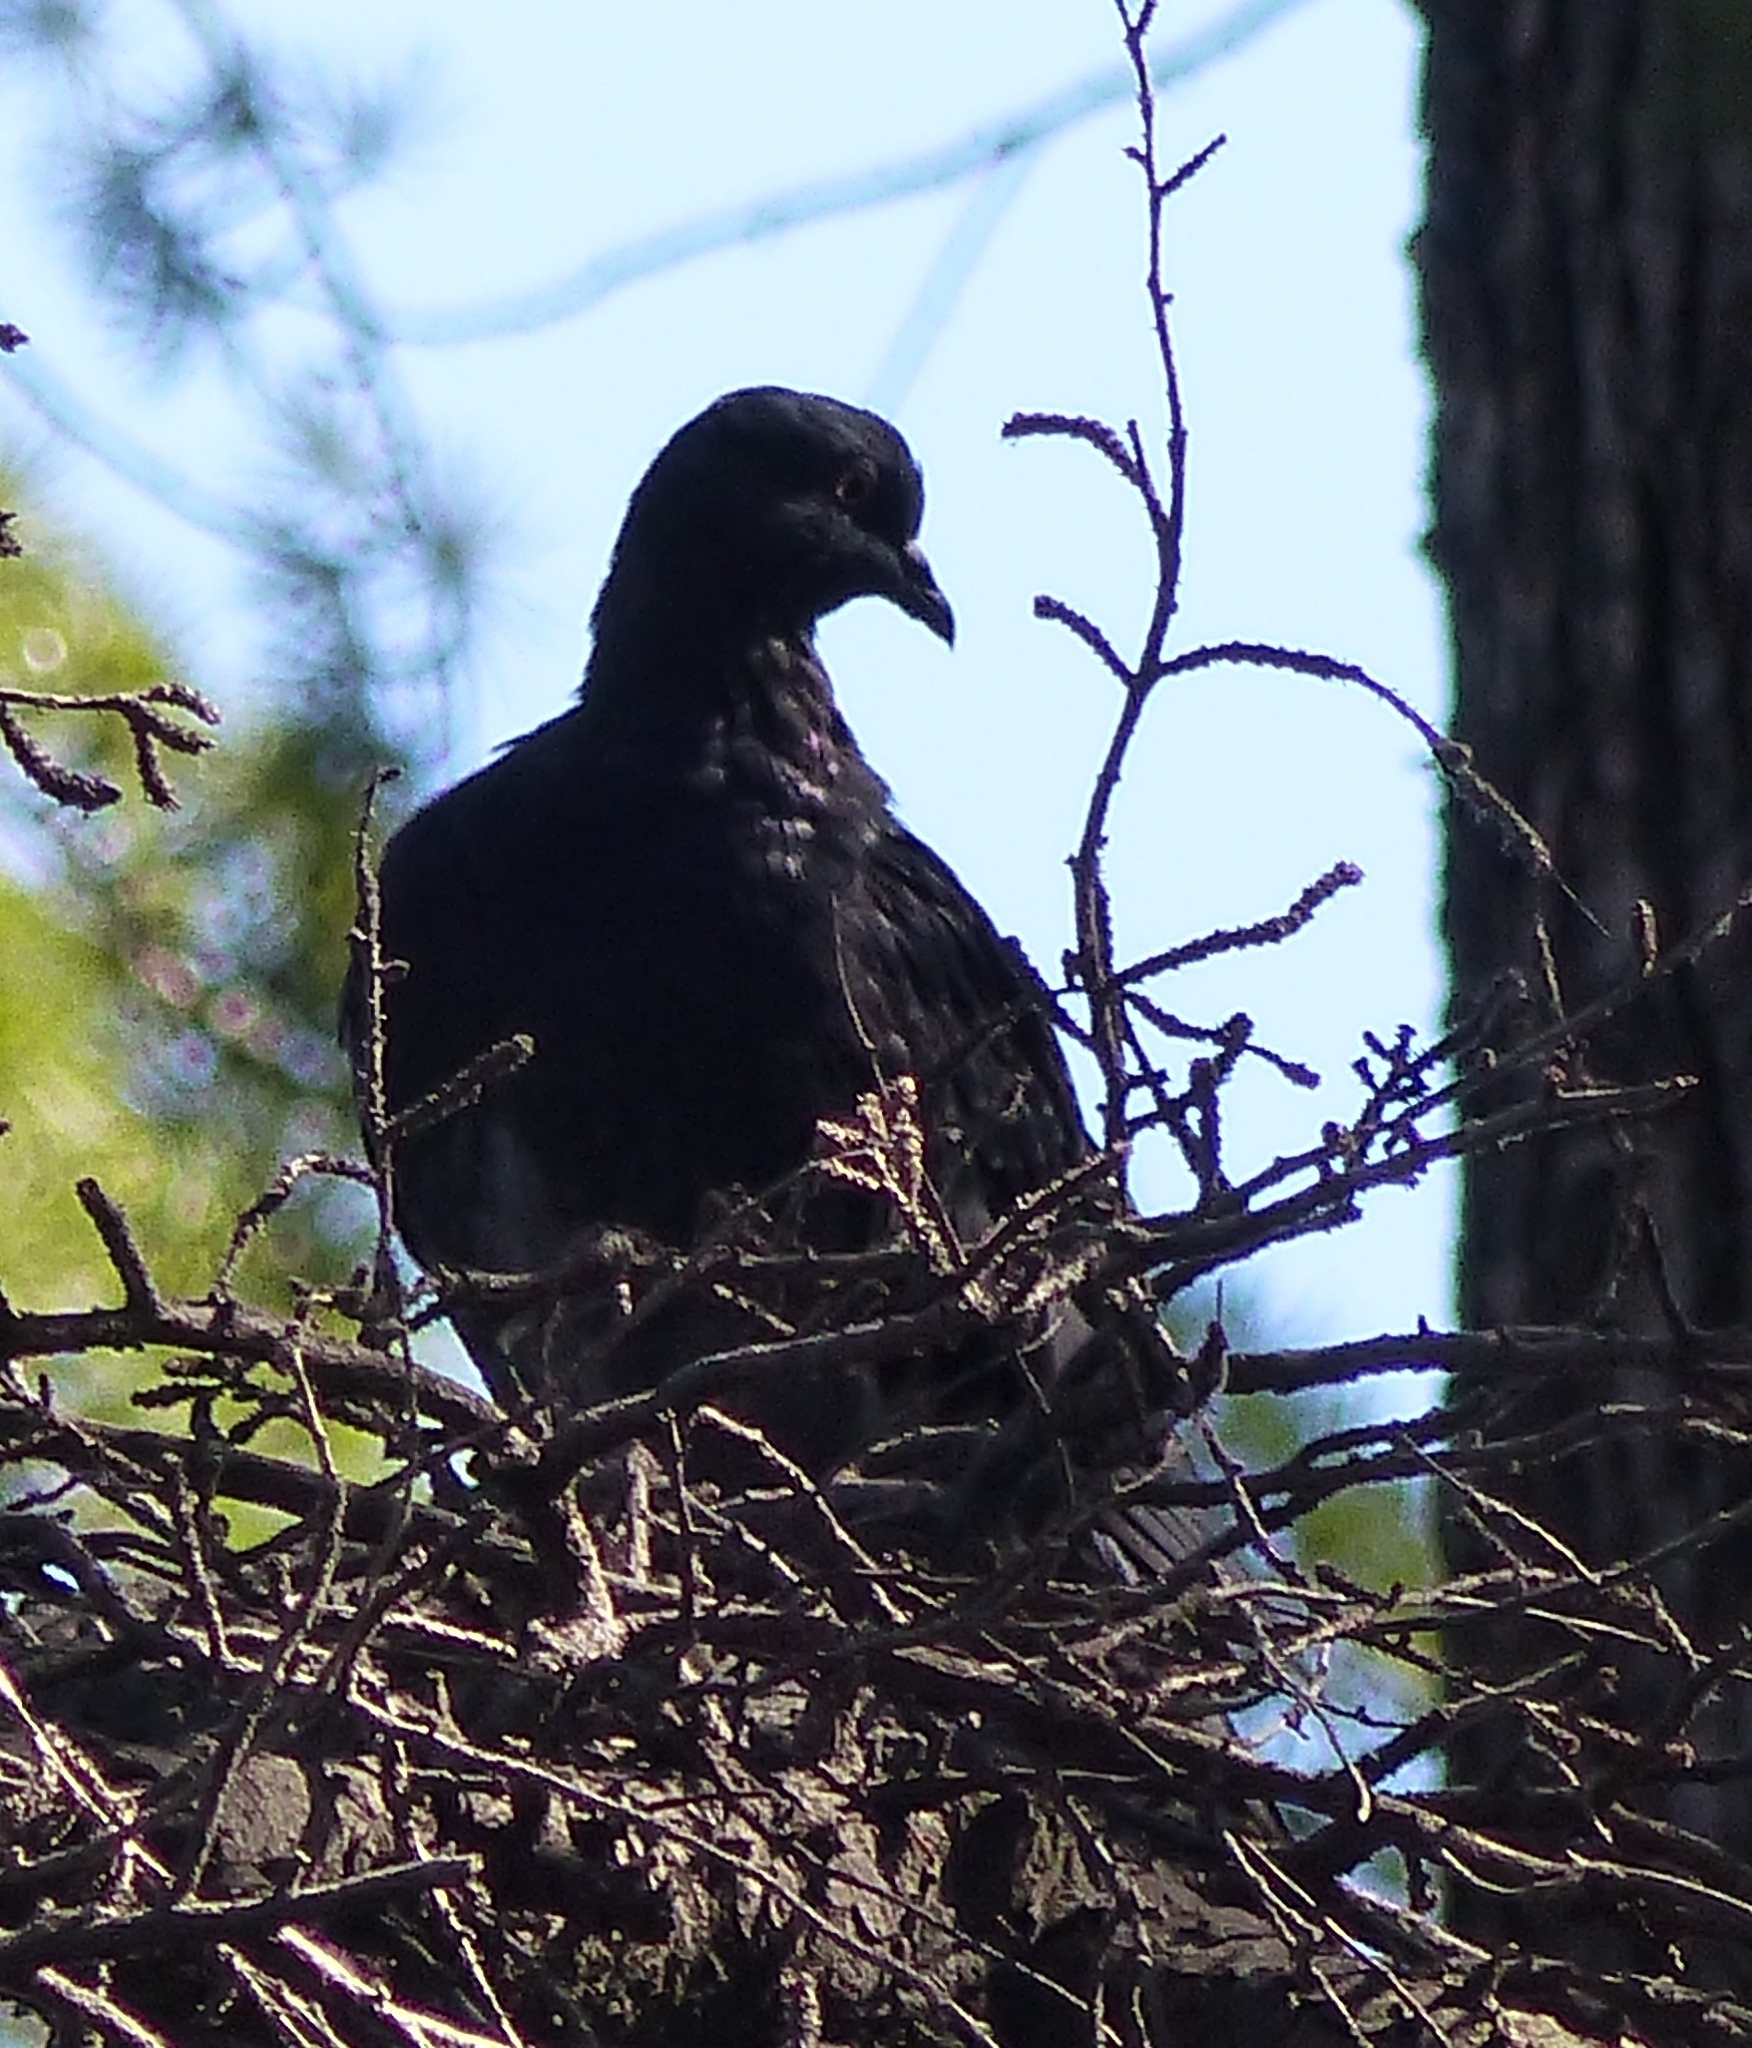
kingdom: Animalia
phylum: Chordata
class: Aves
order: Columbiformes
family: Columbidae
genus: Columba
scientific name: Columba livia
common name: Rock pigeon
